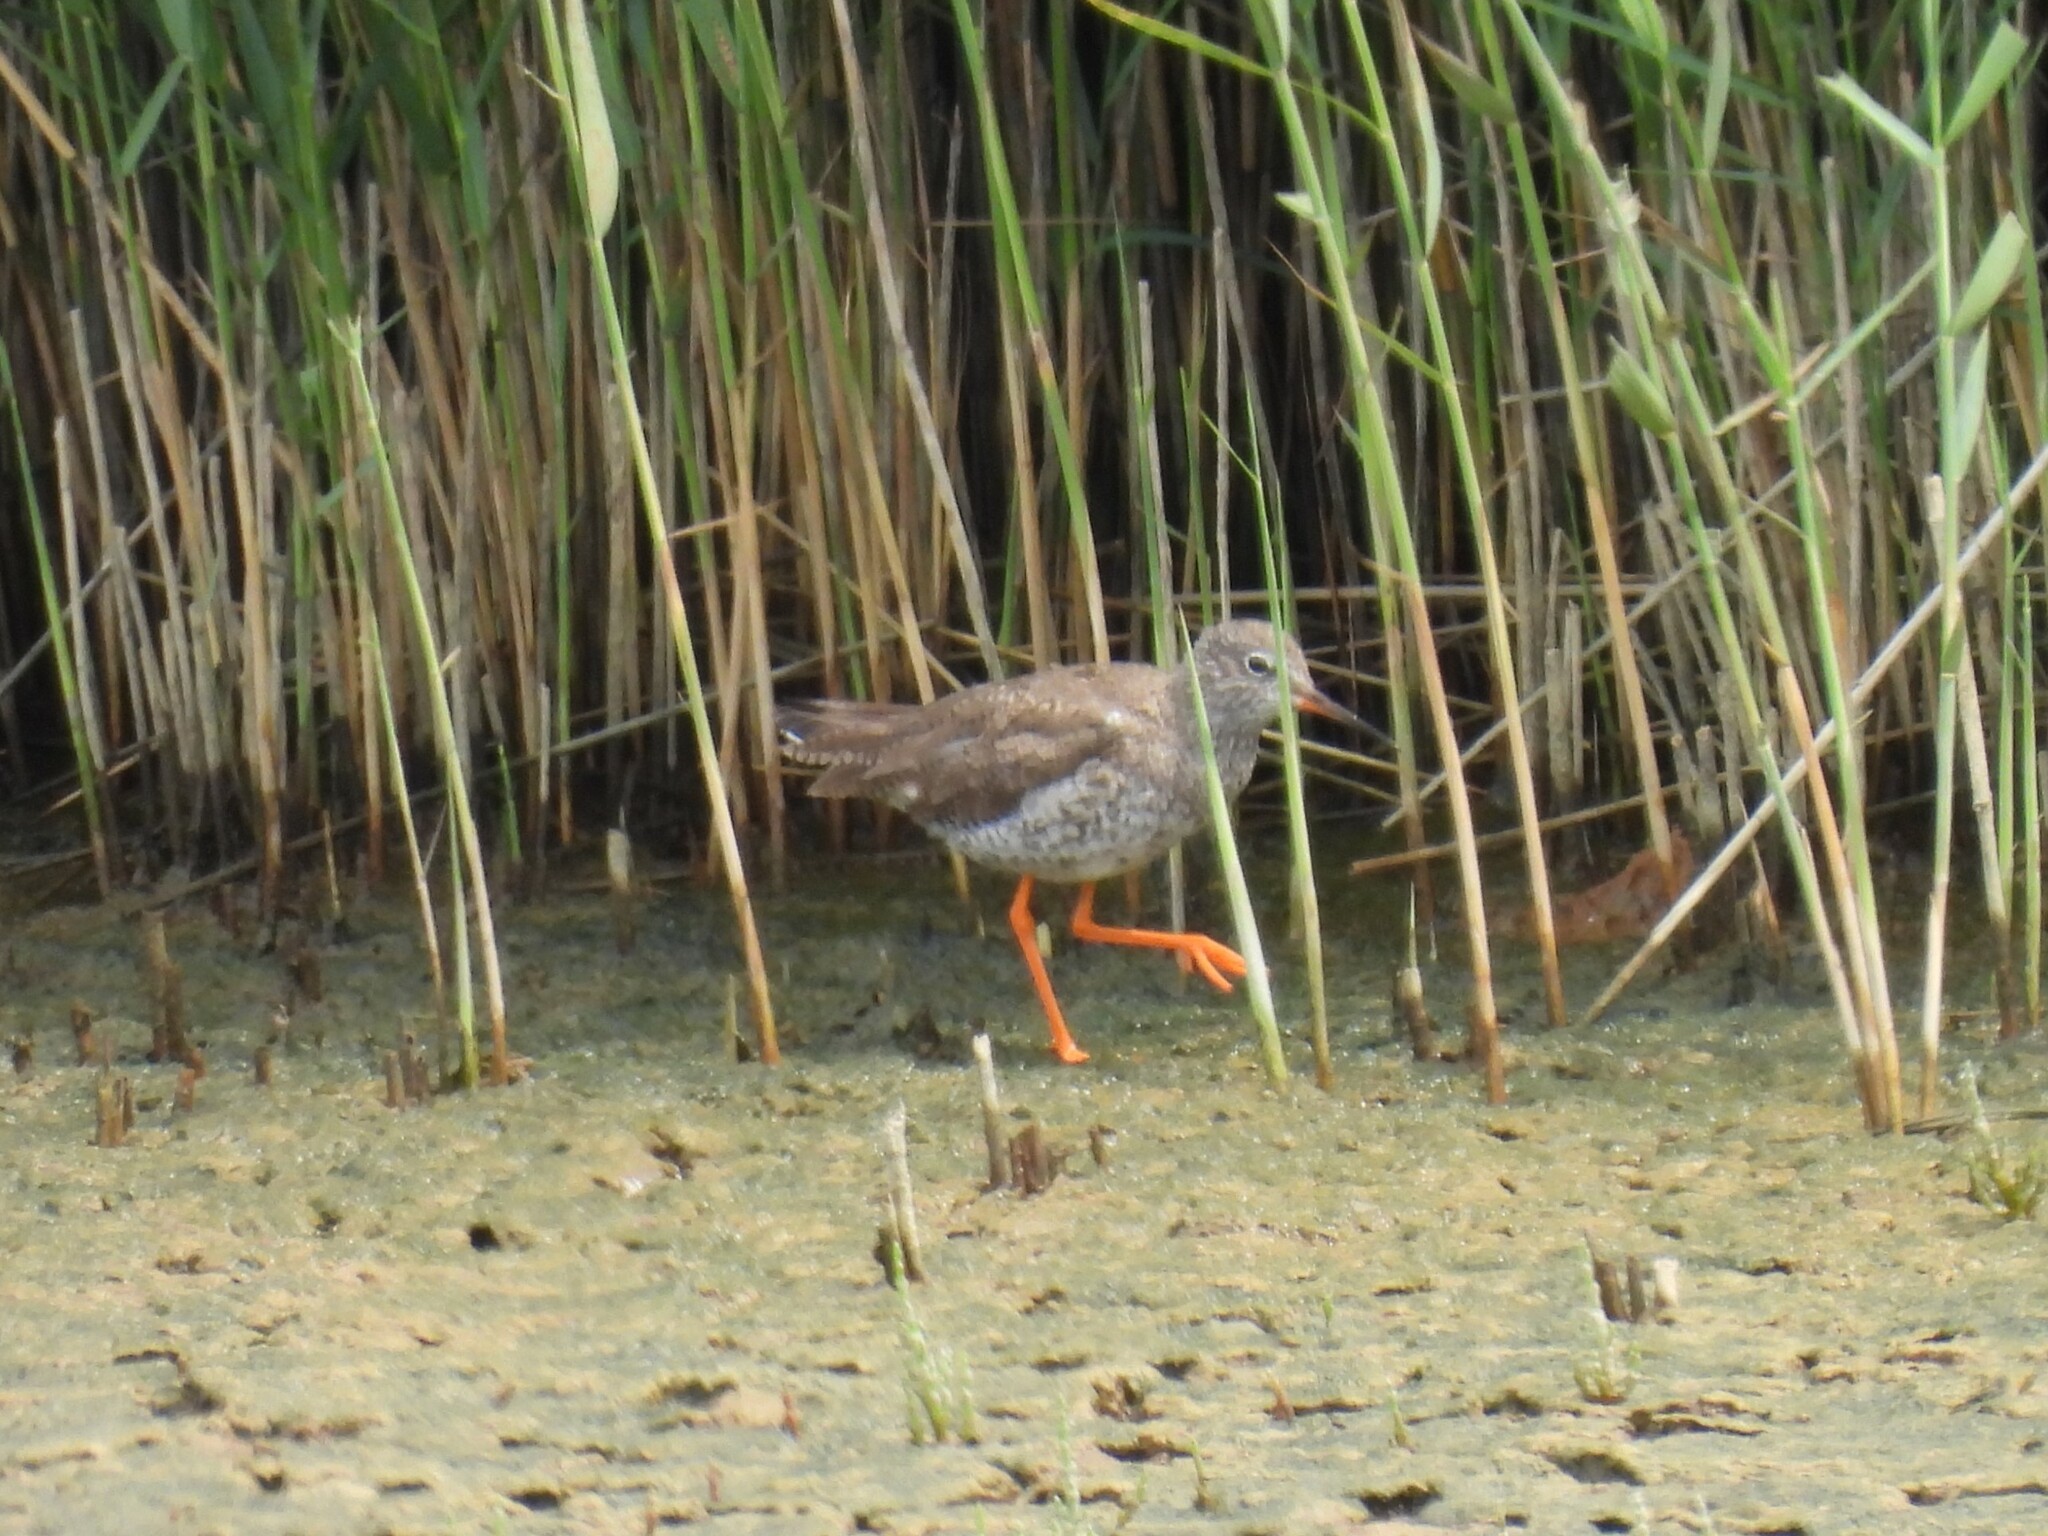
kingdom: Animalia
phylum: Chordata
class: Aves
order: Charadriiformes
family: Scolopacidae
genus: Tringa
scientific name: Tringa totanus
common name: Common redshank
